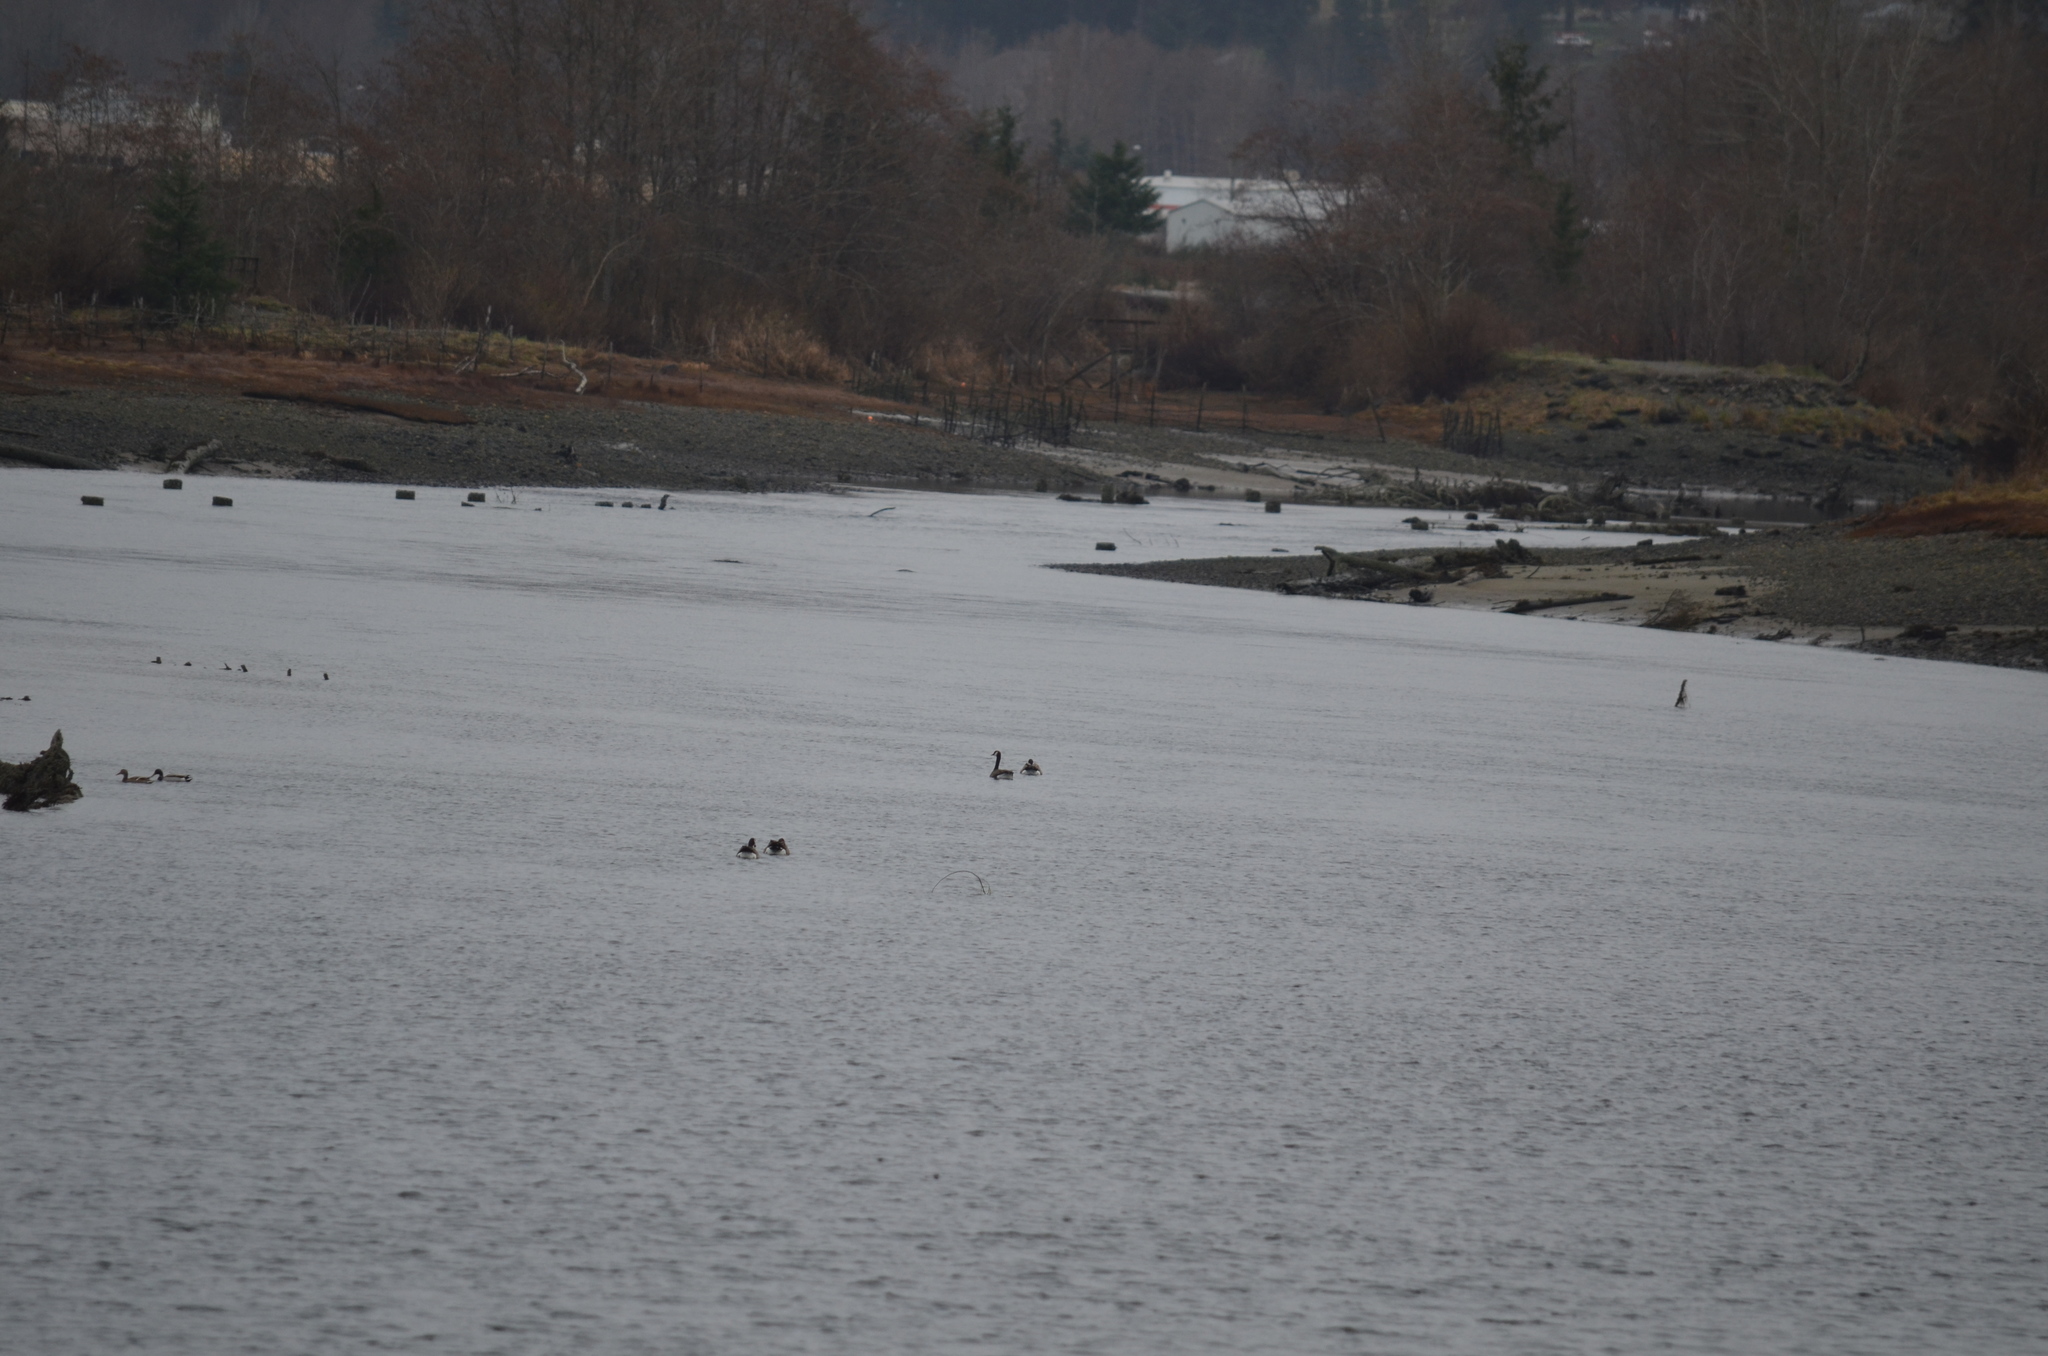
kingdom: Animalia
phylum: Chordata
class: Aves
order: Anseriformes
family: Anatidae
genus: Anas
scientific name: Anas platyrhynchos
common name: Mallard
